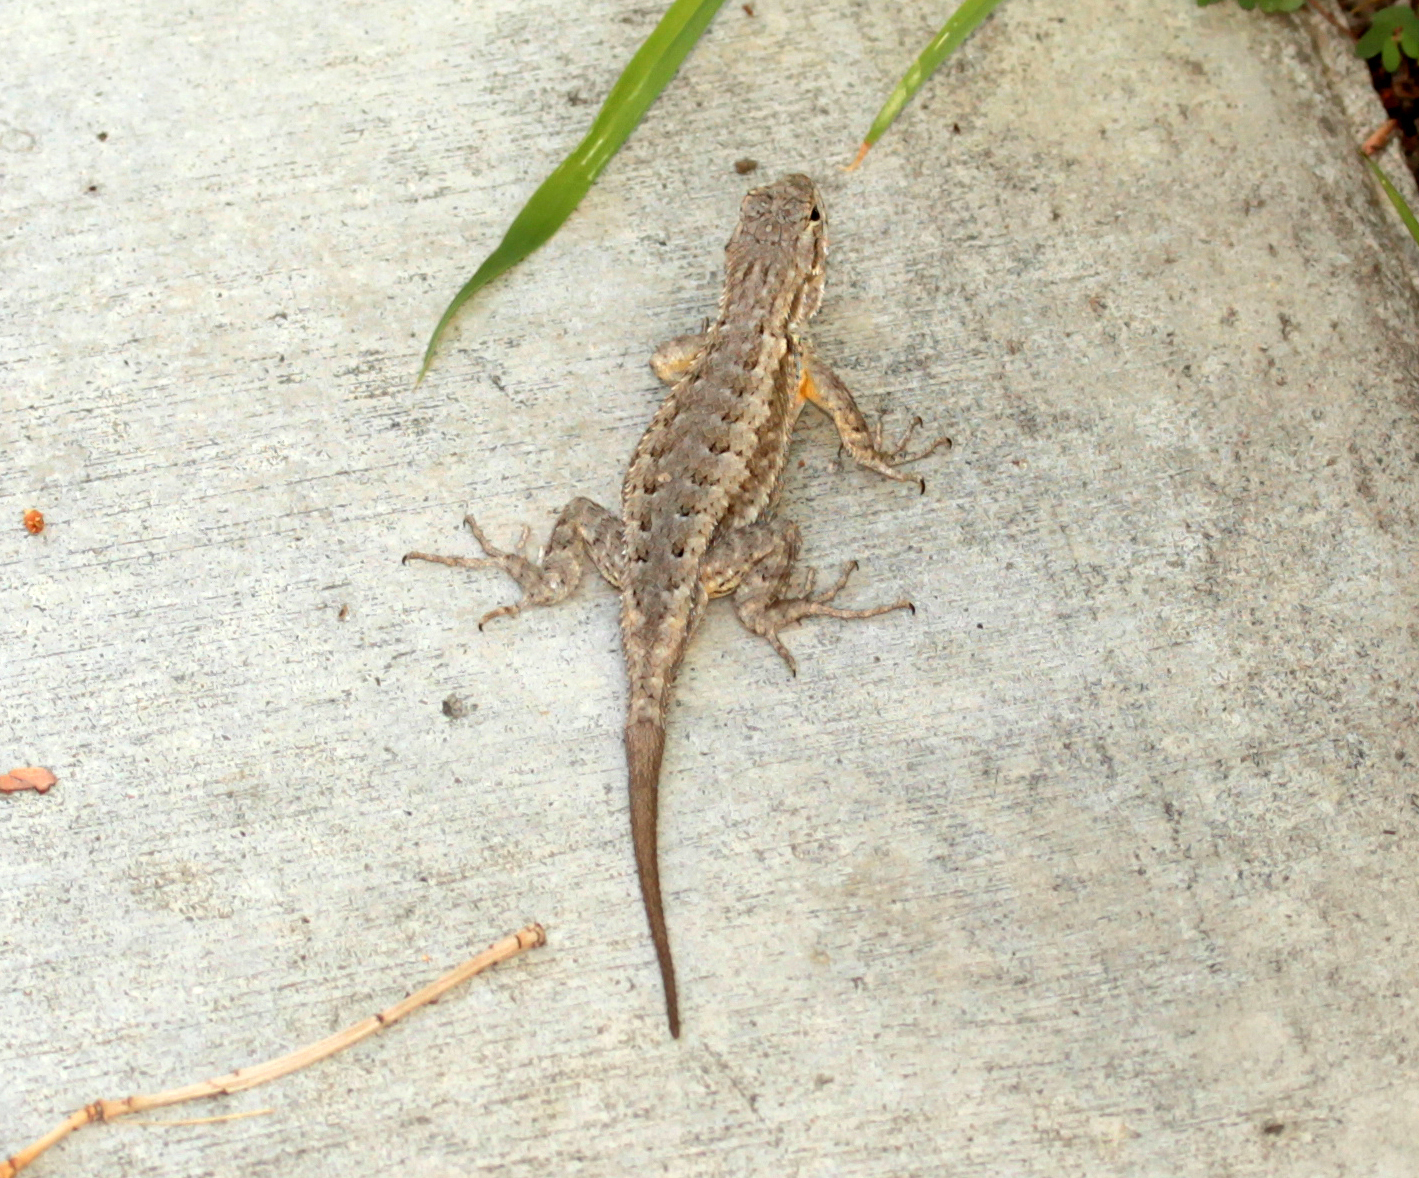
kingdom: Animalia
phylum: Chordata
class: Squamata
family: Phrynosomatidae
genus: Sceloporus
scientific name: Sceloporus occidentalis
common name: Western fence lizard
